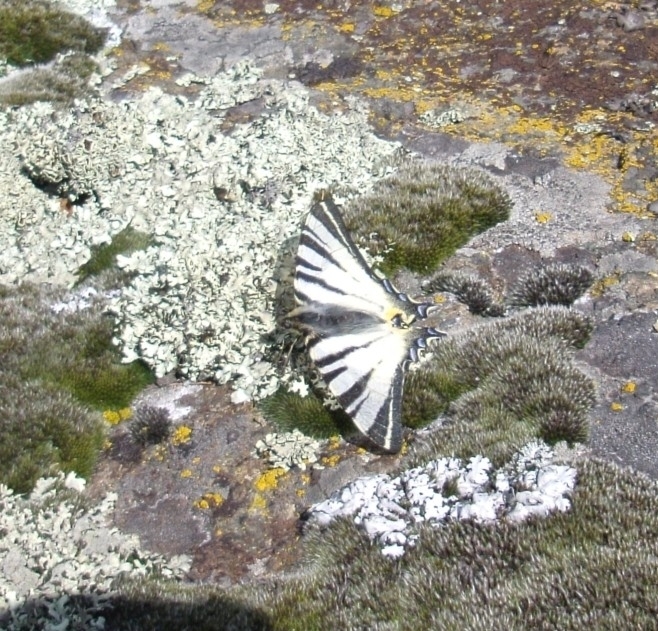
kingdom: Animalia
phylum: Arthropoda
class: Insecta
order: Lepidoptera
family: Papilionidae
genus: Iphiclides
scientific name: Iphiclides podalirius
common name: Scarce swallowtail
